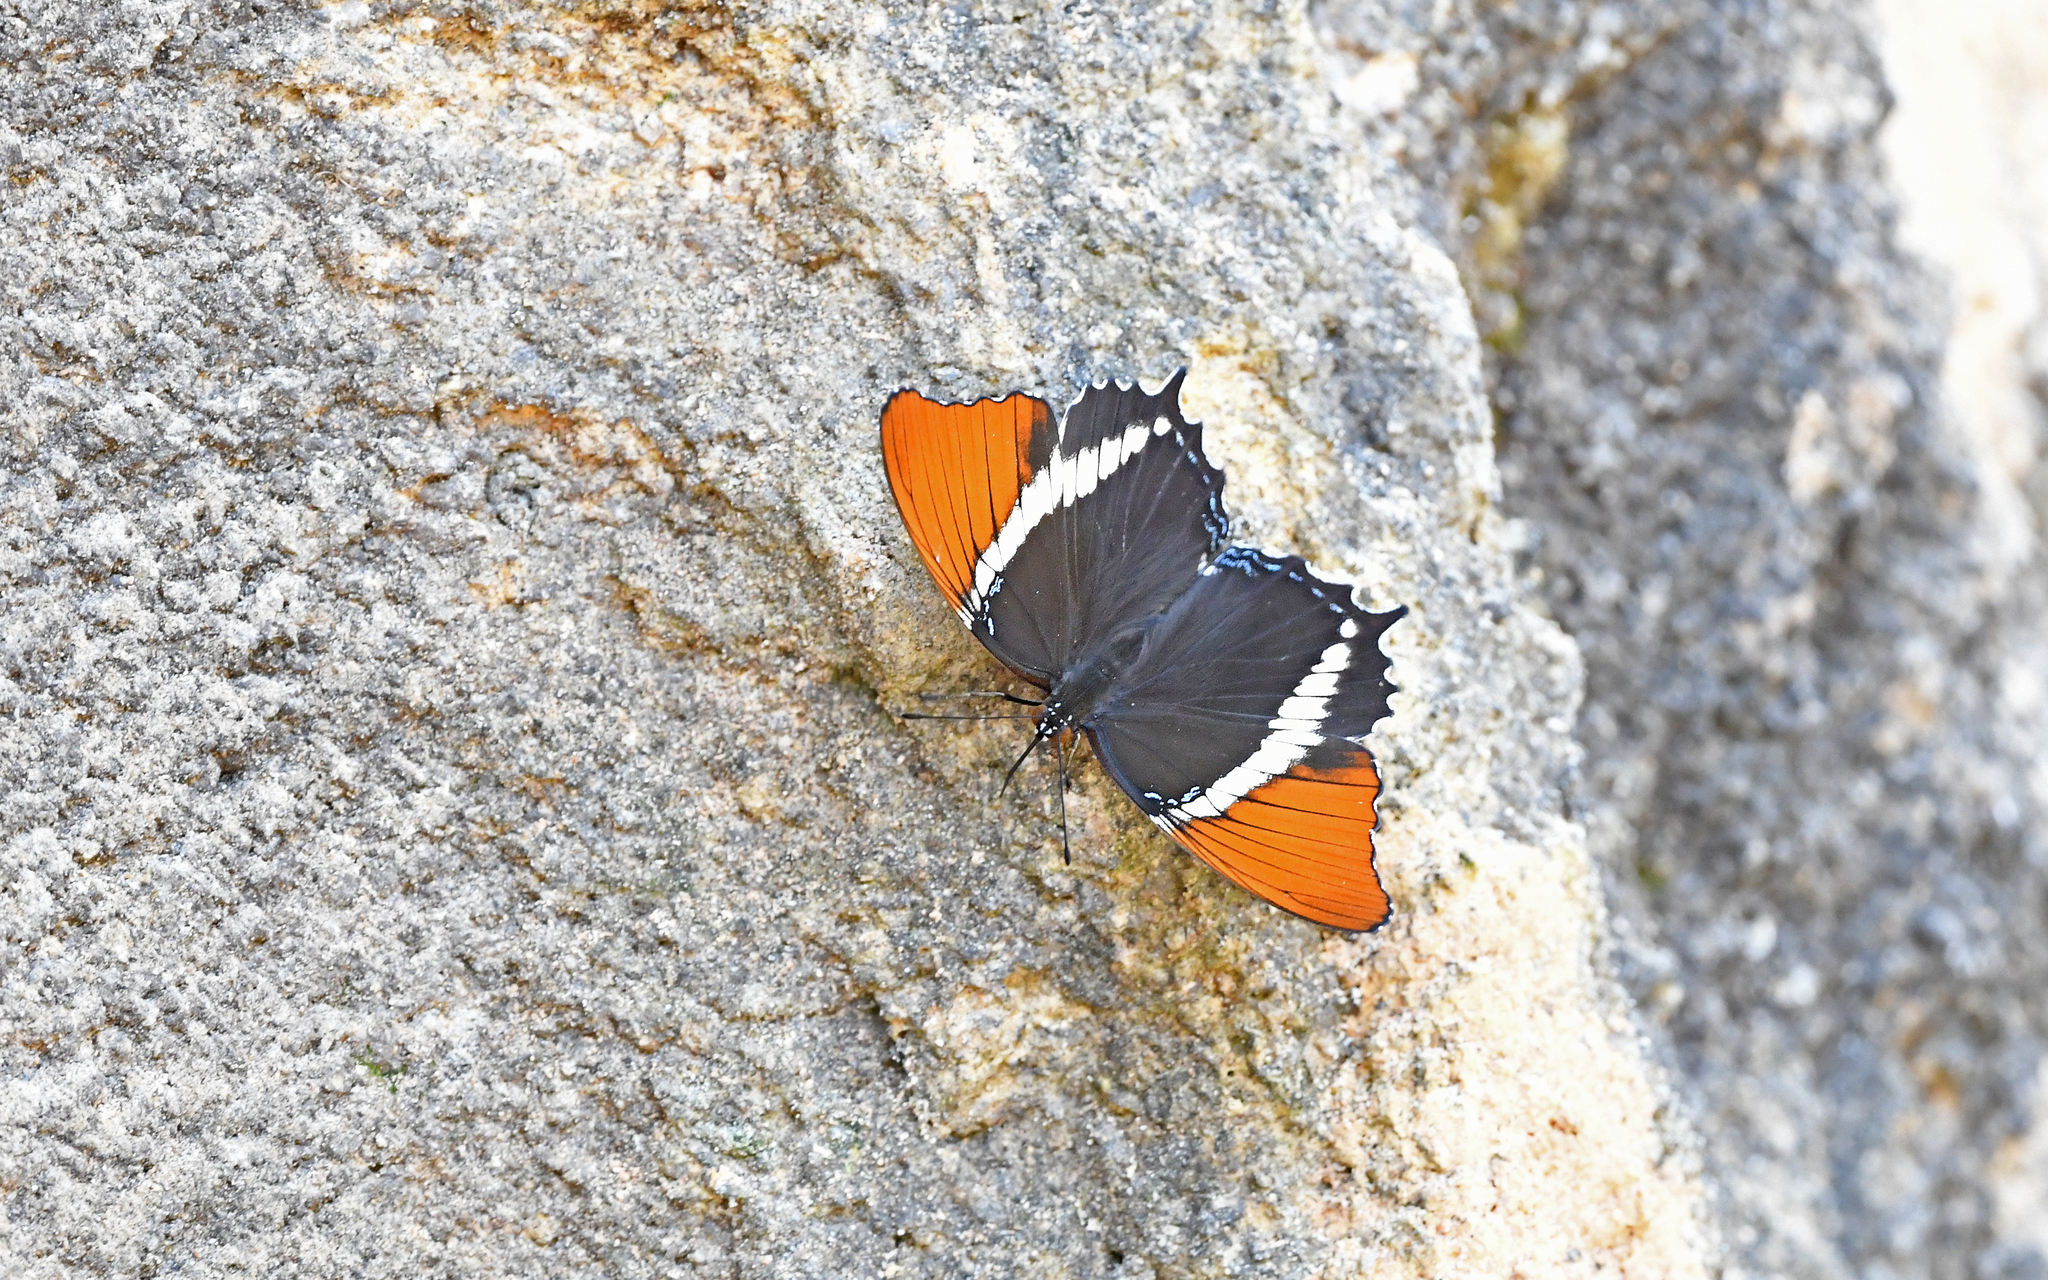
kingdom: Animalia
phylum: Arthropoda
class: Insecta
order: Lepidoptera
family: Nymphalidae
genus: Siproeta
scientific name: Siproeta epaphus
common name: Rusty-tipped page
